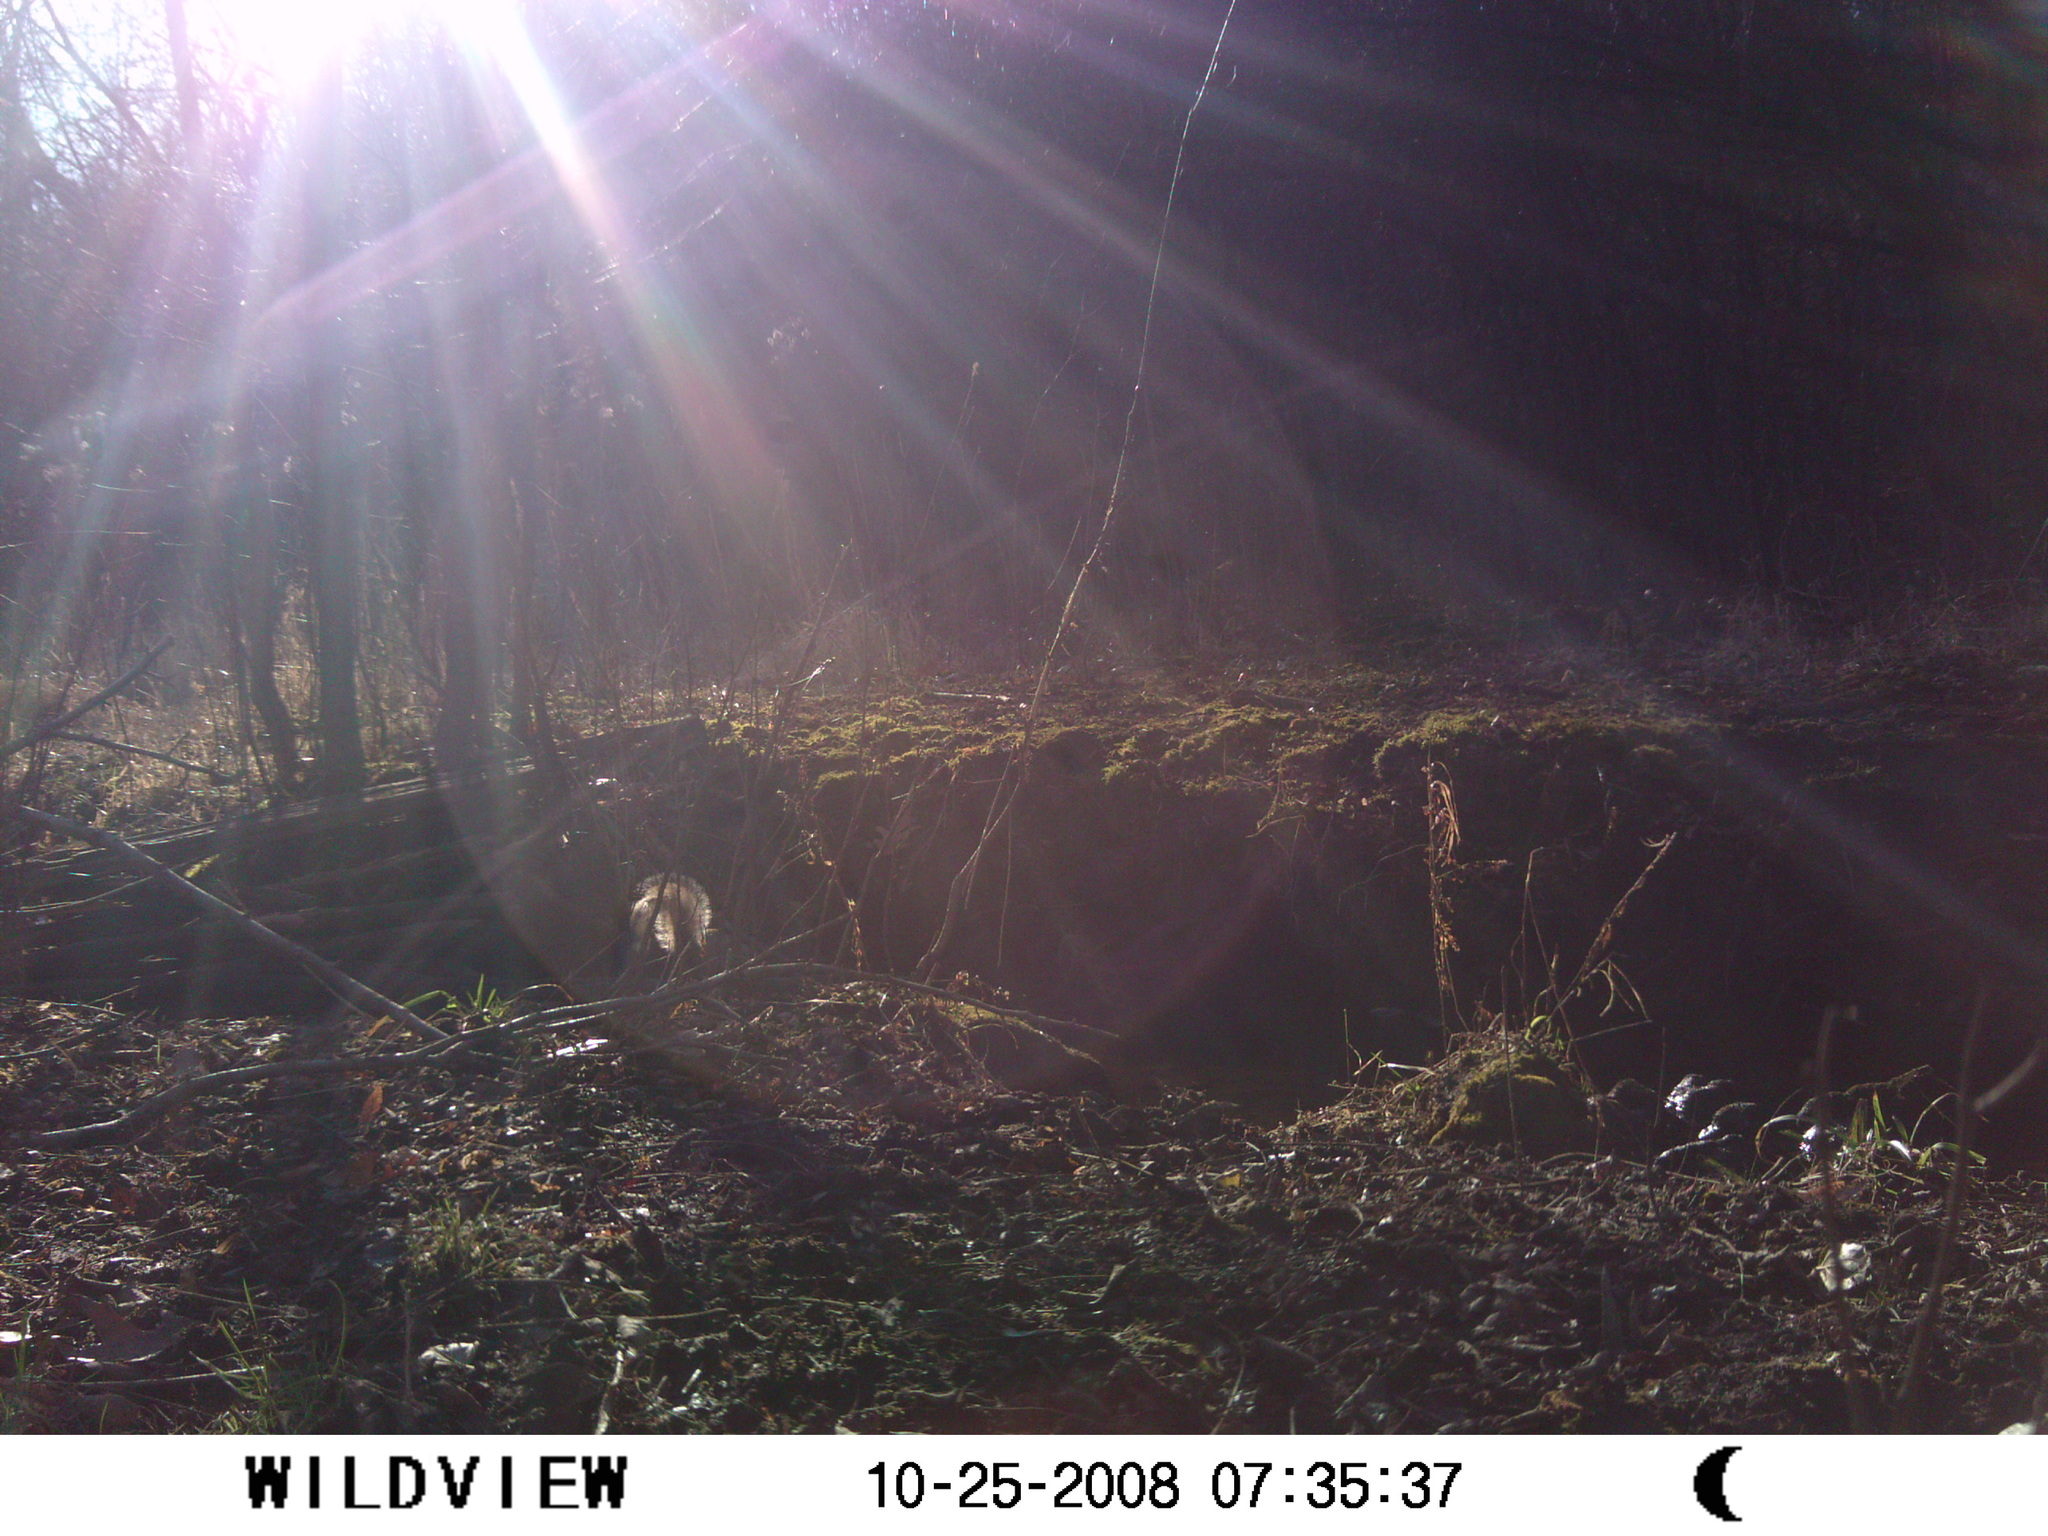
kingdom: Animalia
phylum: Chordata
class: Mammalia
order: Rodentia
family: Sciuridae
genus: Sciurus
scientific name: Sciurus carolinensis
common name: Eastern gray squirrel
